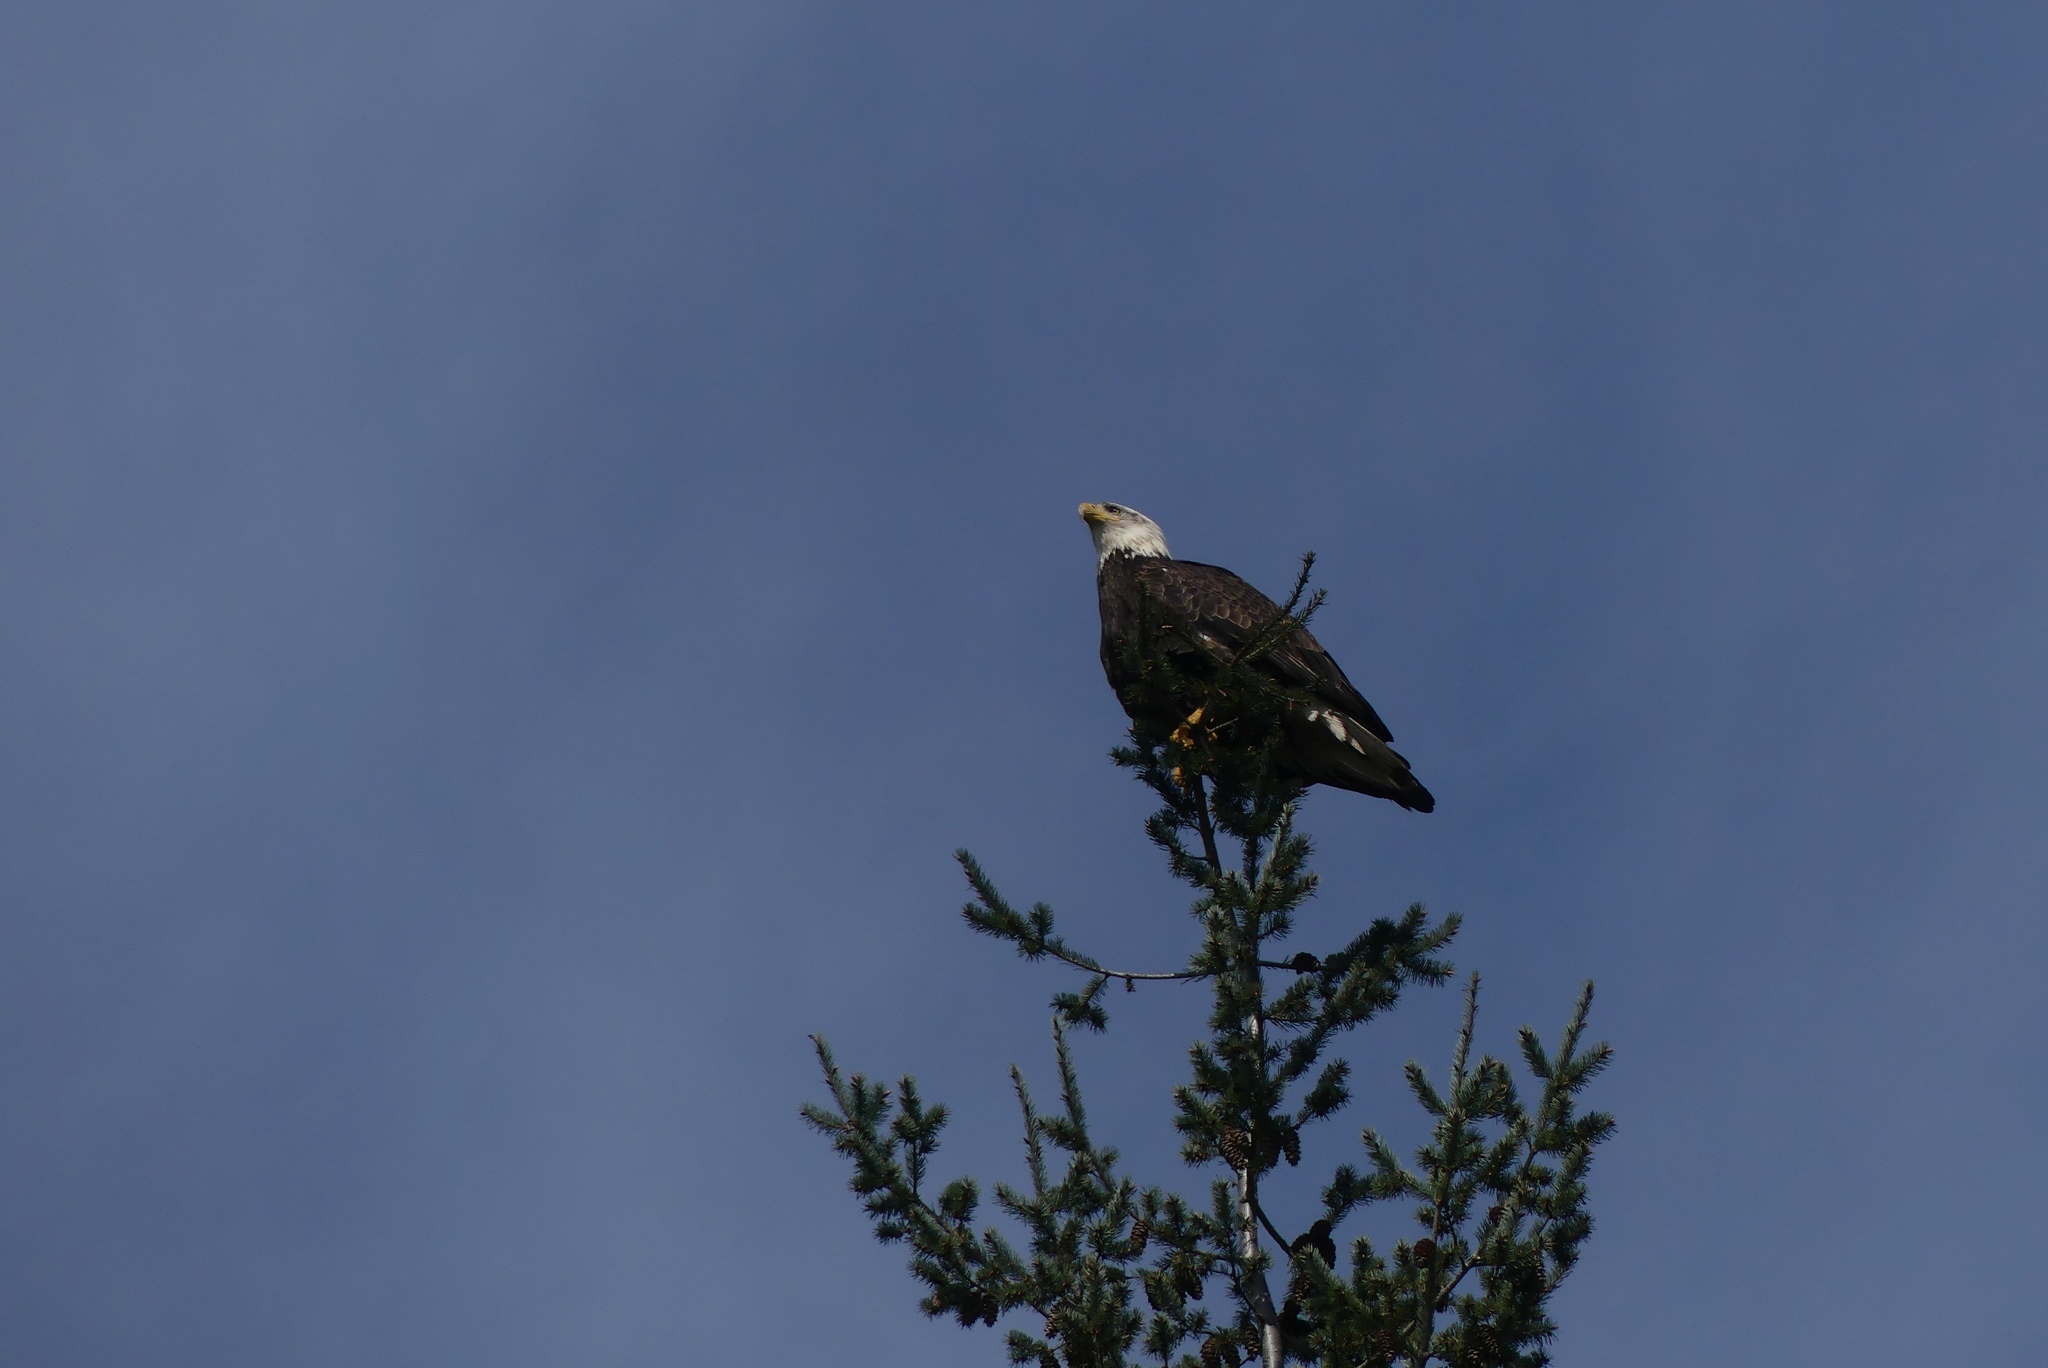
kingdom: Animalia
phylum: Chordata
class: Aves
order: Accipitriformes
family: Accipitridae
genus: Haliaeetus
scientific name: Haliaeetus leucocephalus
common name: Bald eagle
